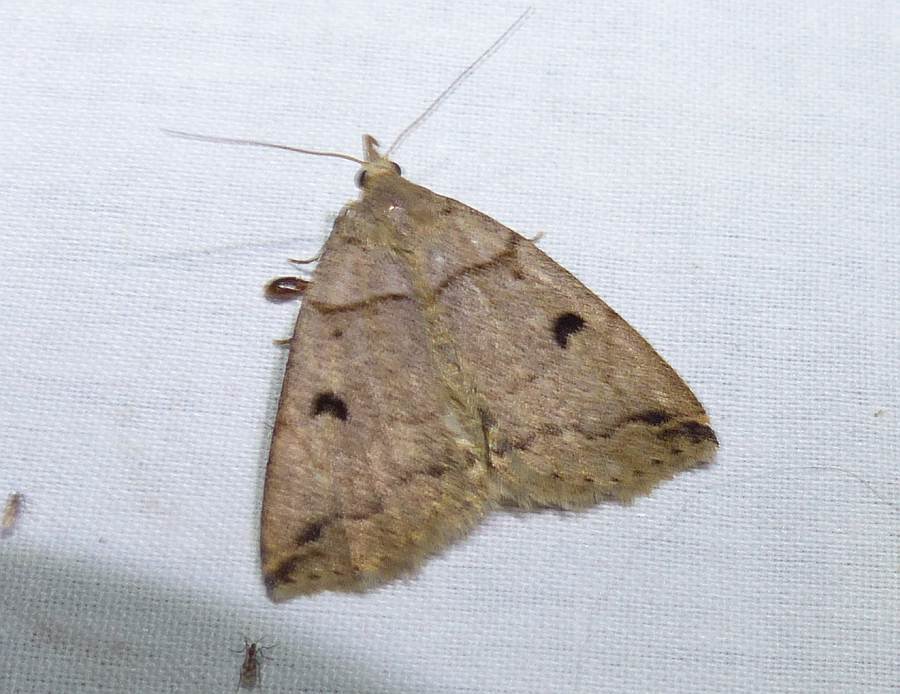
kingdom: Animalia
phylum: Arthropoda
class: Insecta
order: Lepidoptera
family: Erebidae
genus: Zanclognatha
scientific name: Zanclognatha laevigata
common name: Variable fan-foot
